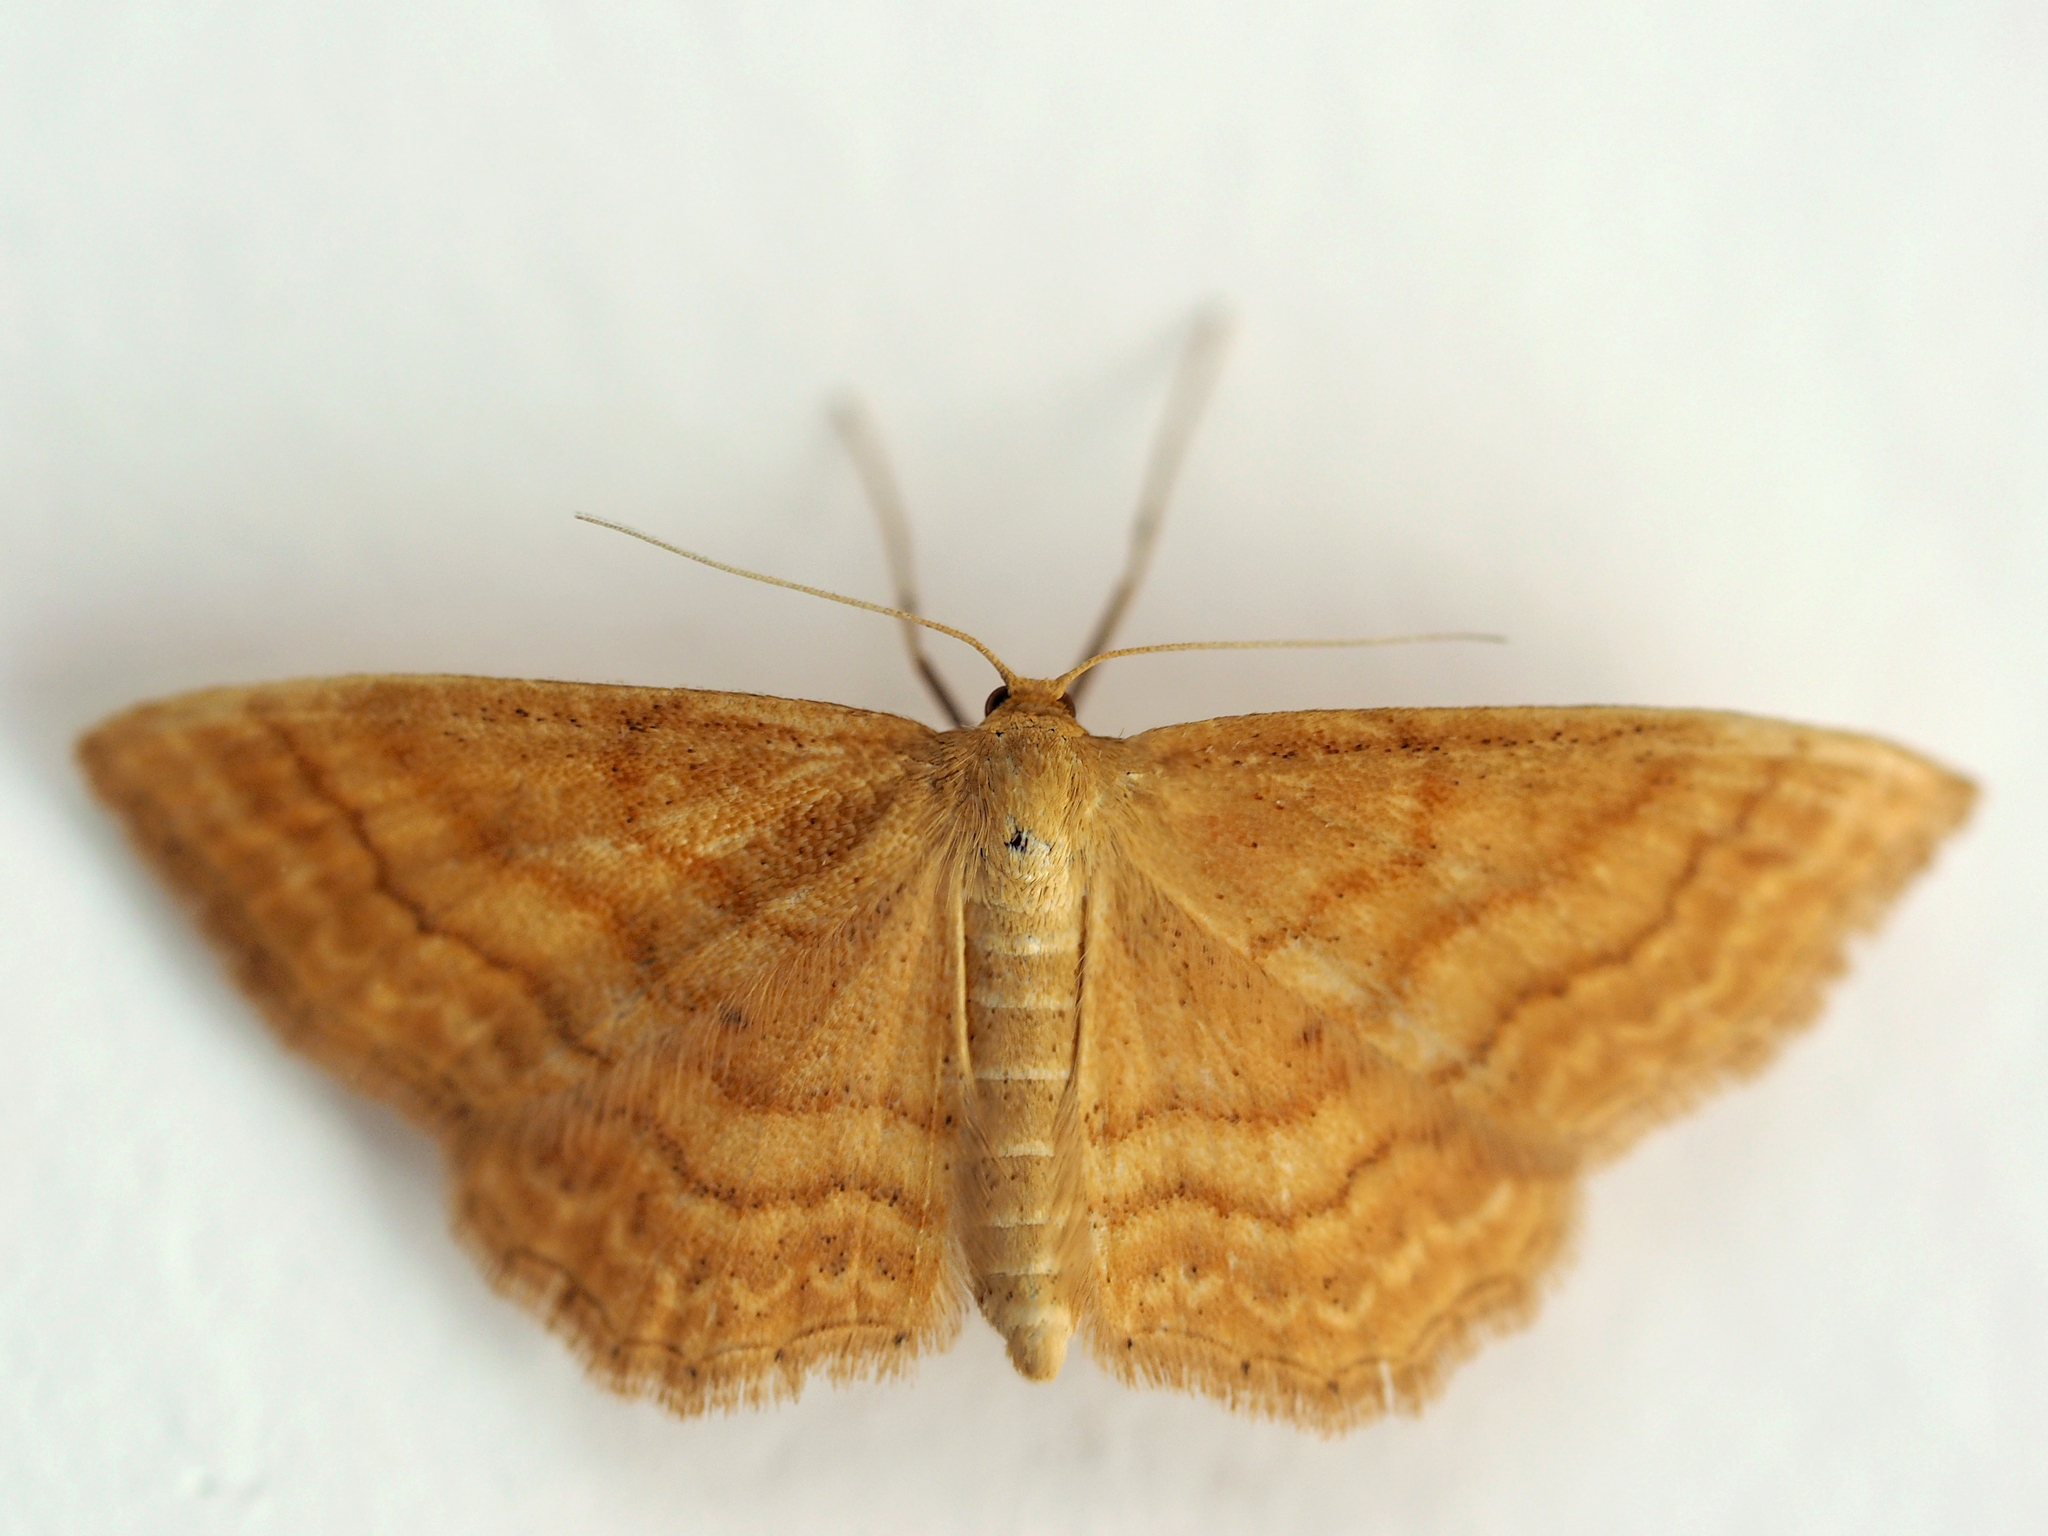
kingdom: Animalia
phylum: Arthropoda
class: Insecta
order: Lepidoptera
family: Geometridae
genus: Idaea
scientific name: Idaea ochrata
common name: Bright wave
